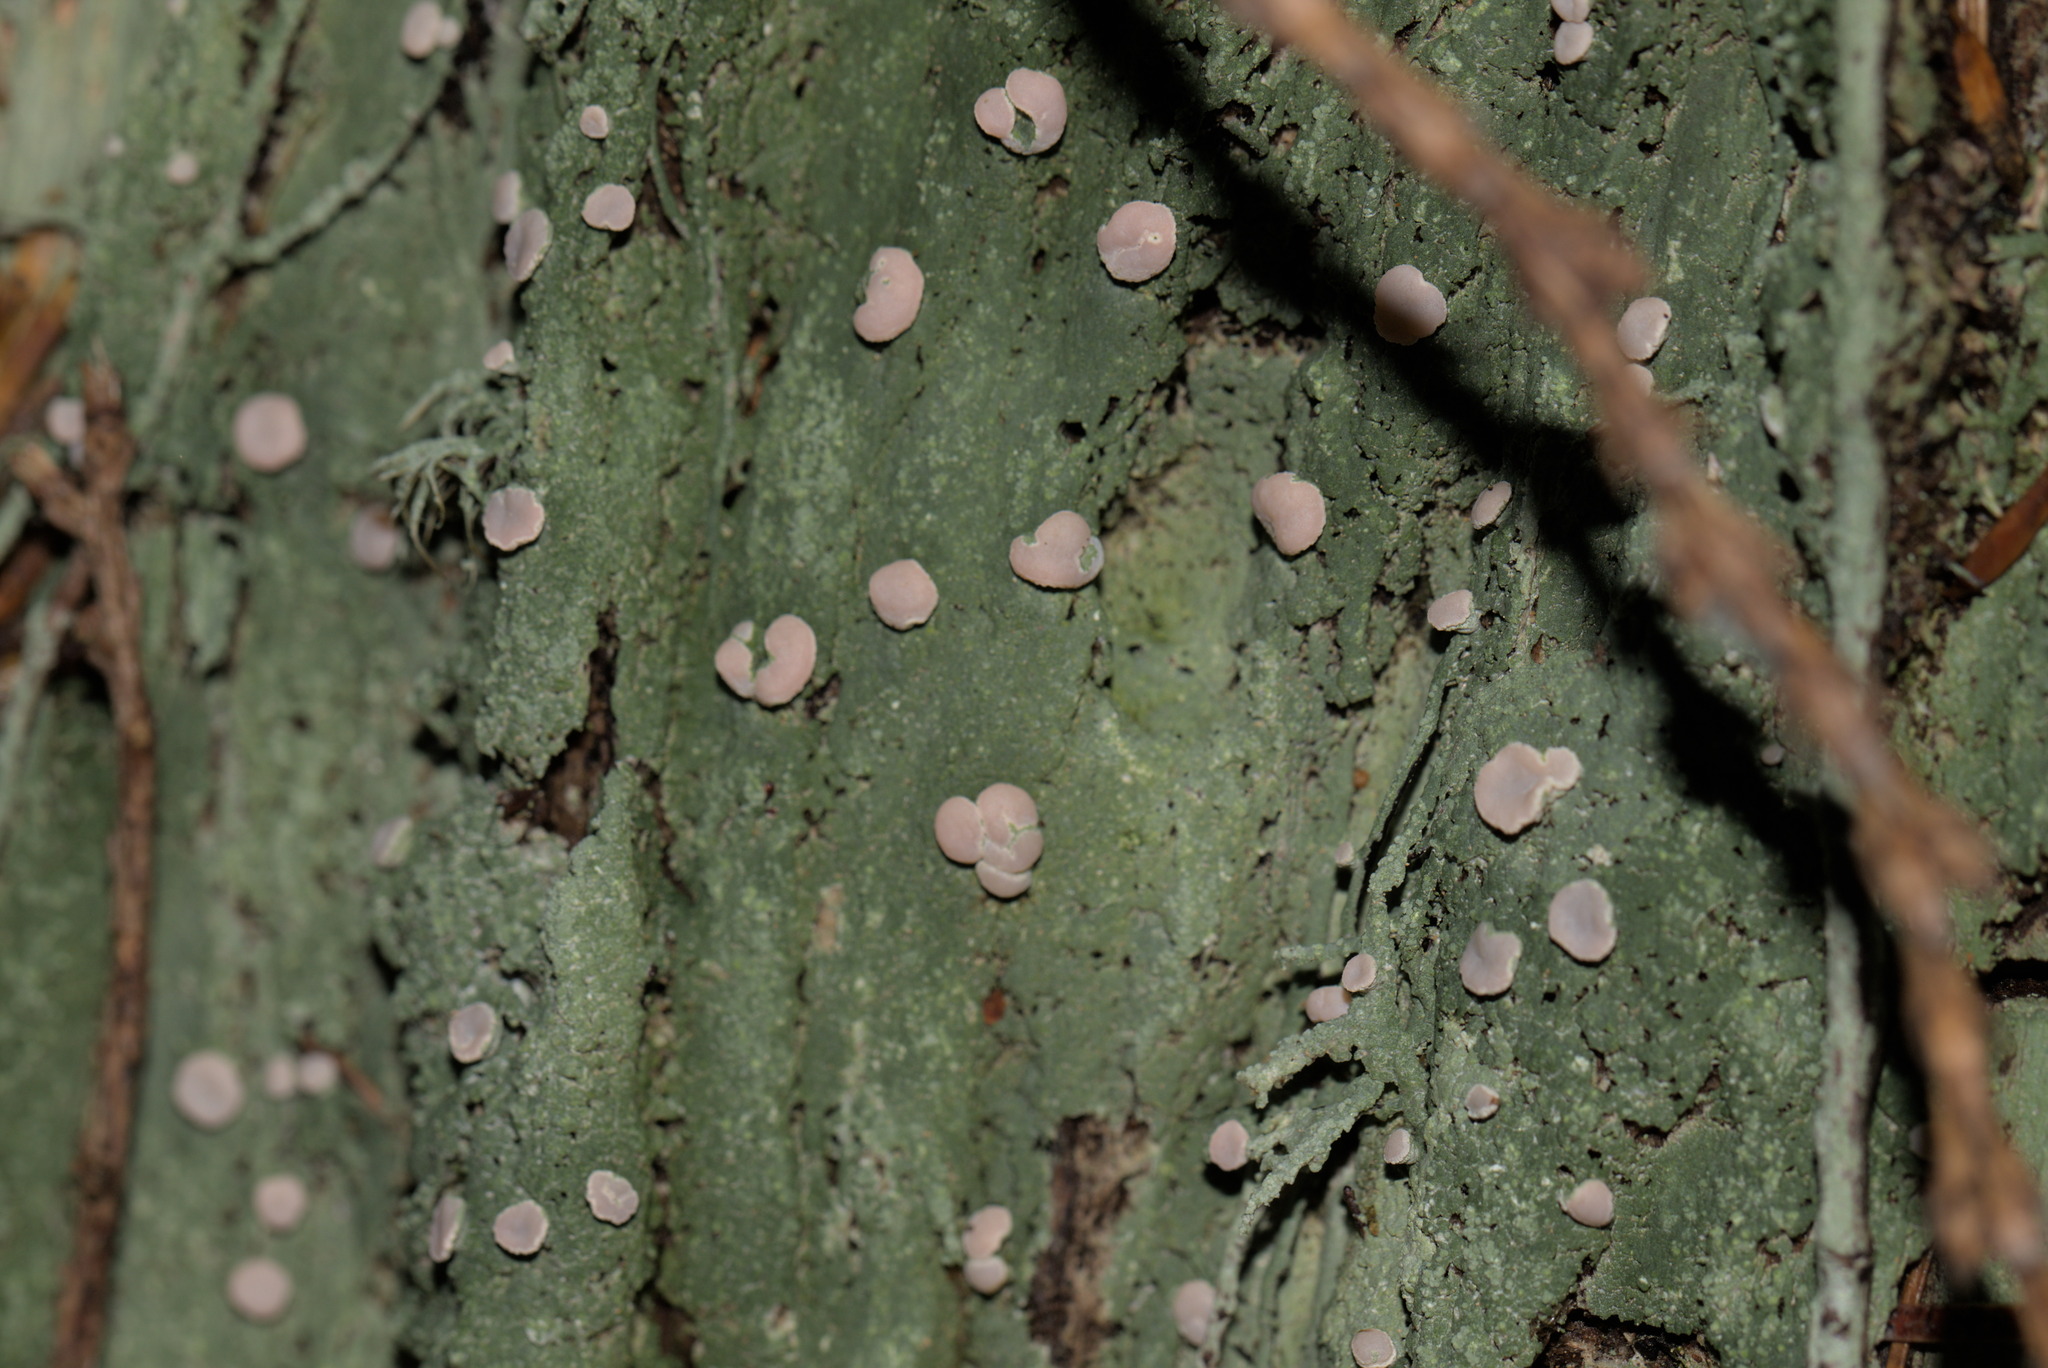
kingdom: Fungi
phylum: Ascomycota
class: Lecanoromycetes
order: Pertusariales
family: Icmadophilaceae
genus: Icmadophila
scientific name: Icmadophila ericetorum
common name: Candy lichen
